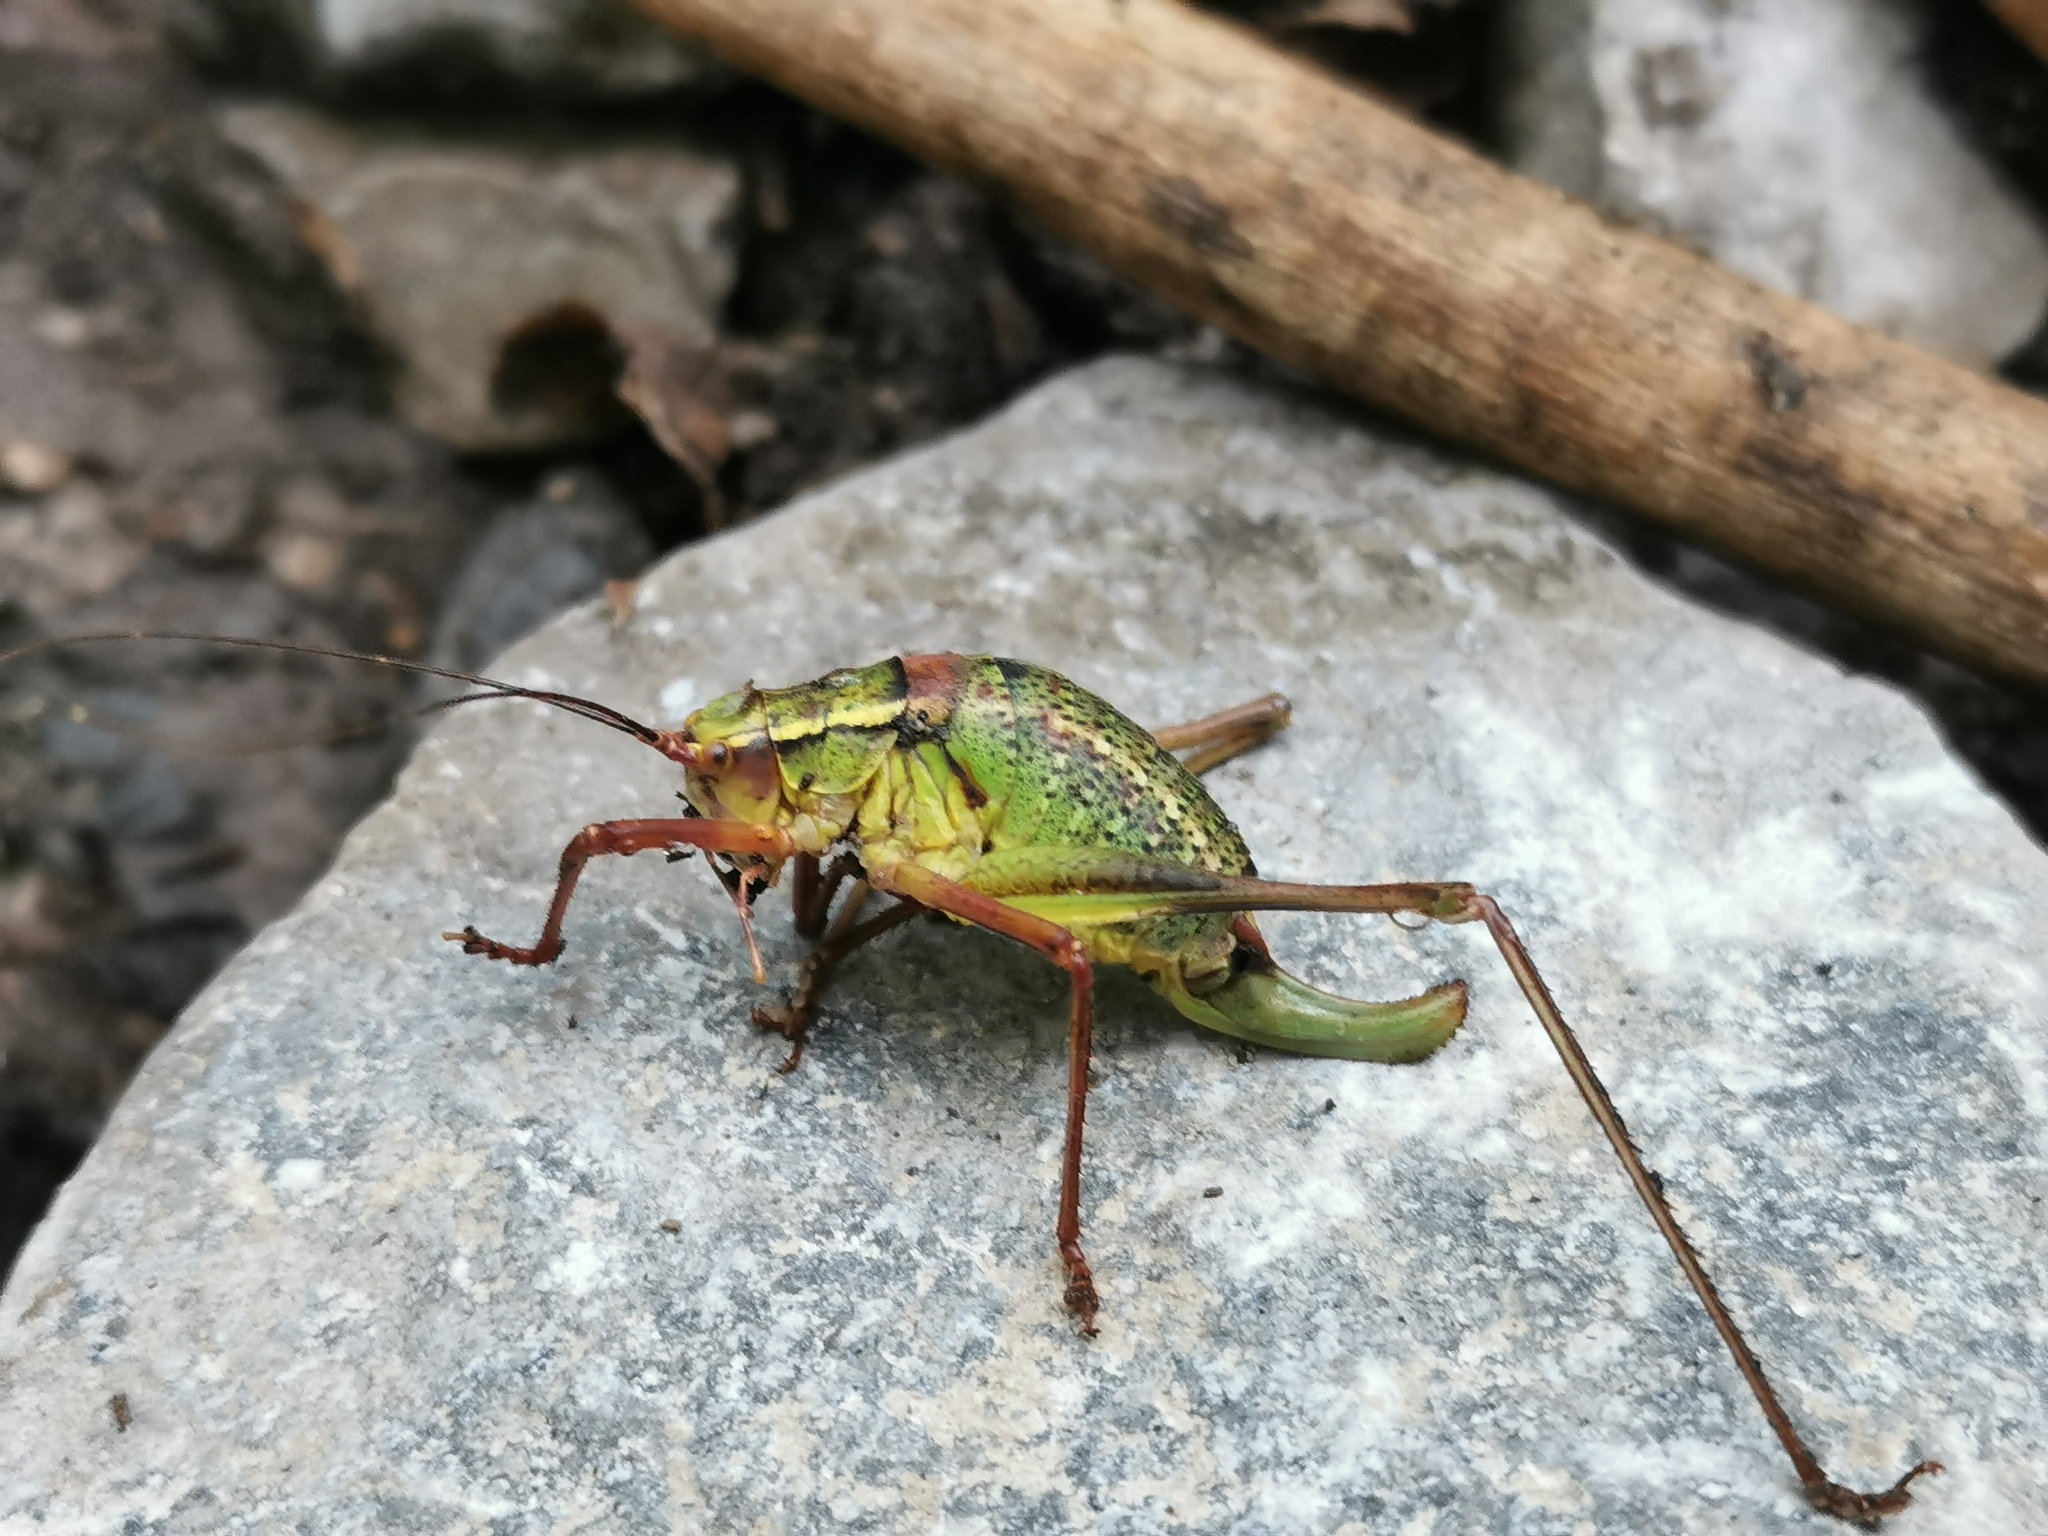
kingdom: Animalia
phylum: Arthropoda
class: Insecta
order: Orthoptera
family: Tettigoniidae
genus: Barbitistes
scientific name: Barbitistes serricauda
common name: Saw-tailed bush-cricket
